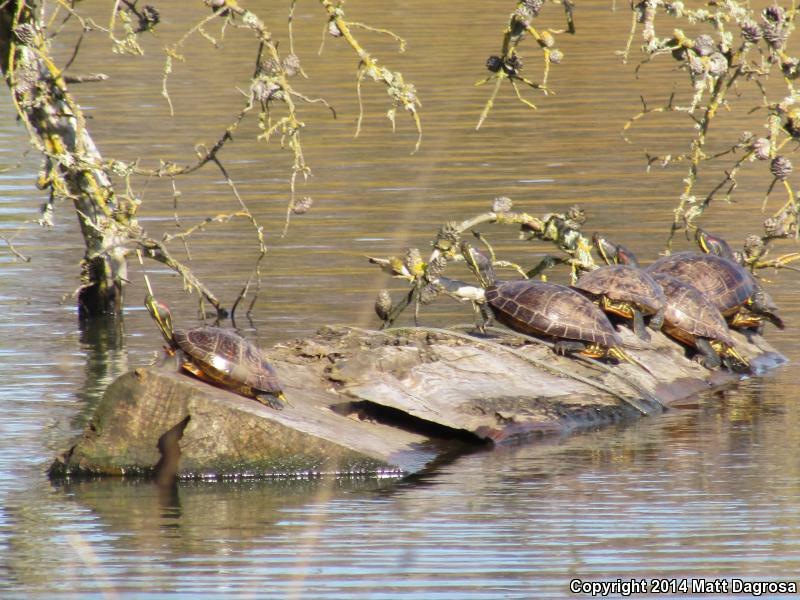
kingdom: Animalia
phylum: Chordata
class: Testudines
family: Emydidae
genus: Trachemys
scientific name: Trachemys scripta
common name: Slider
